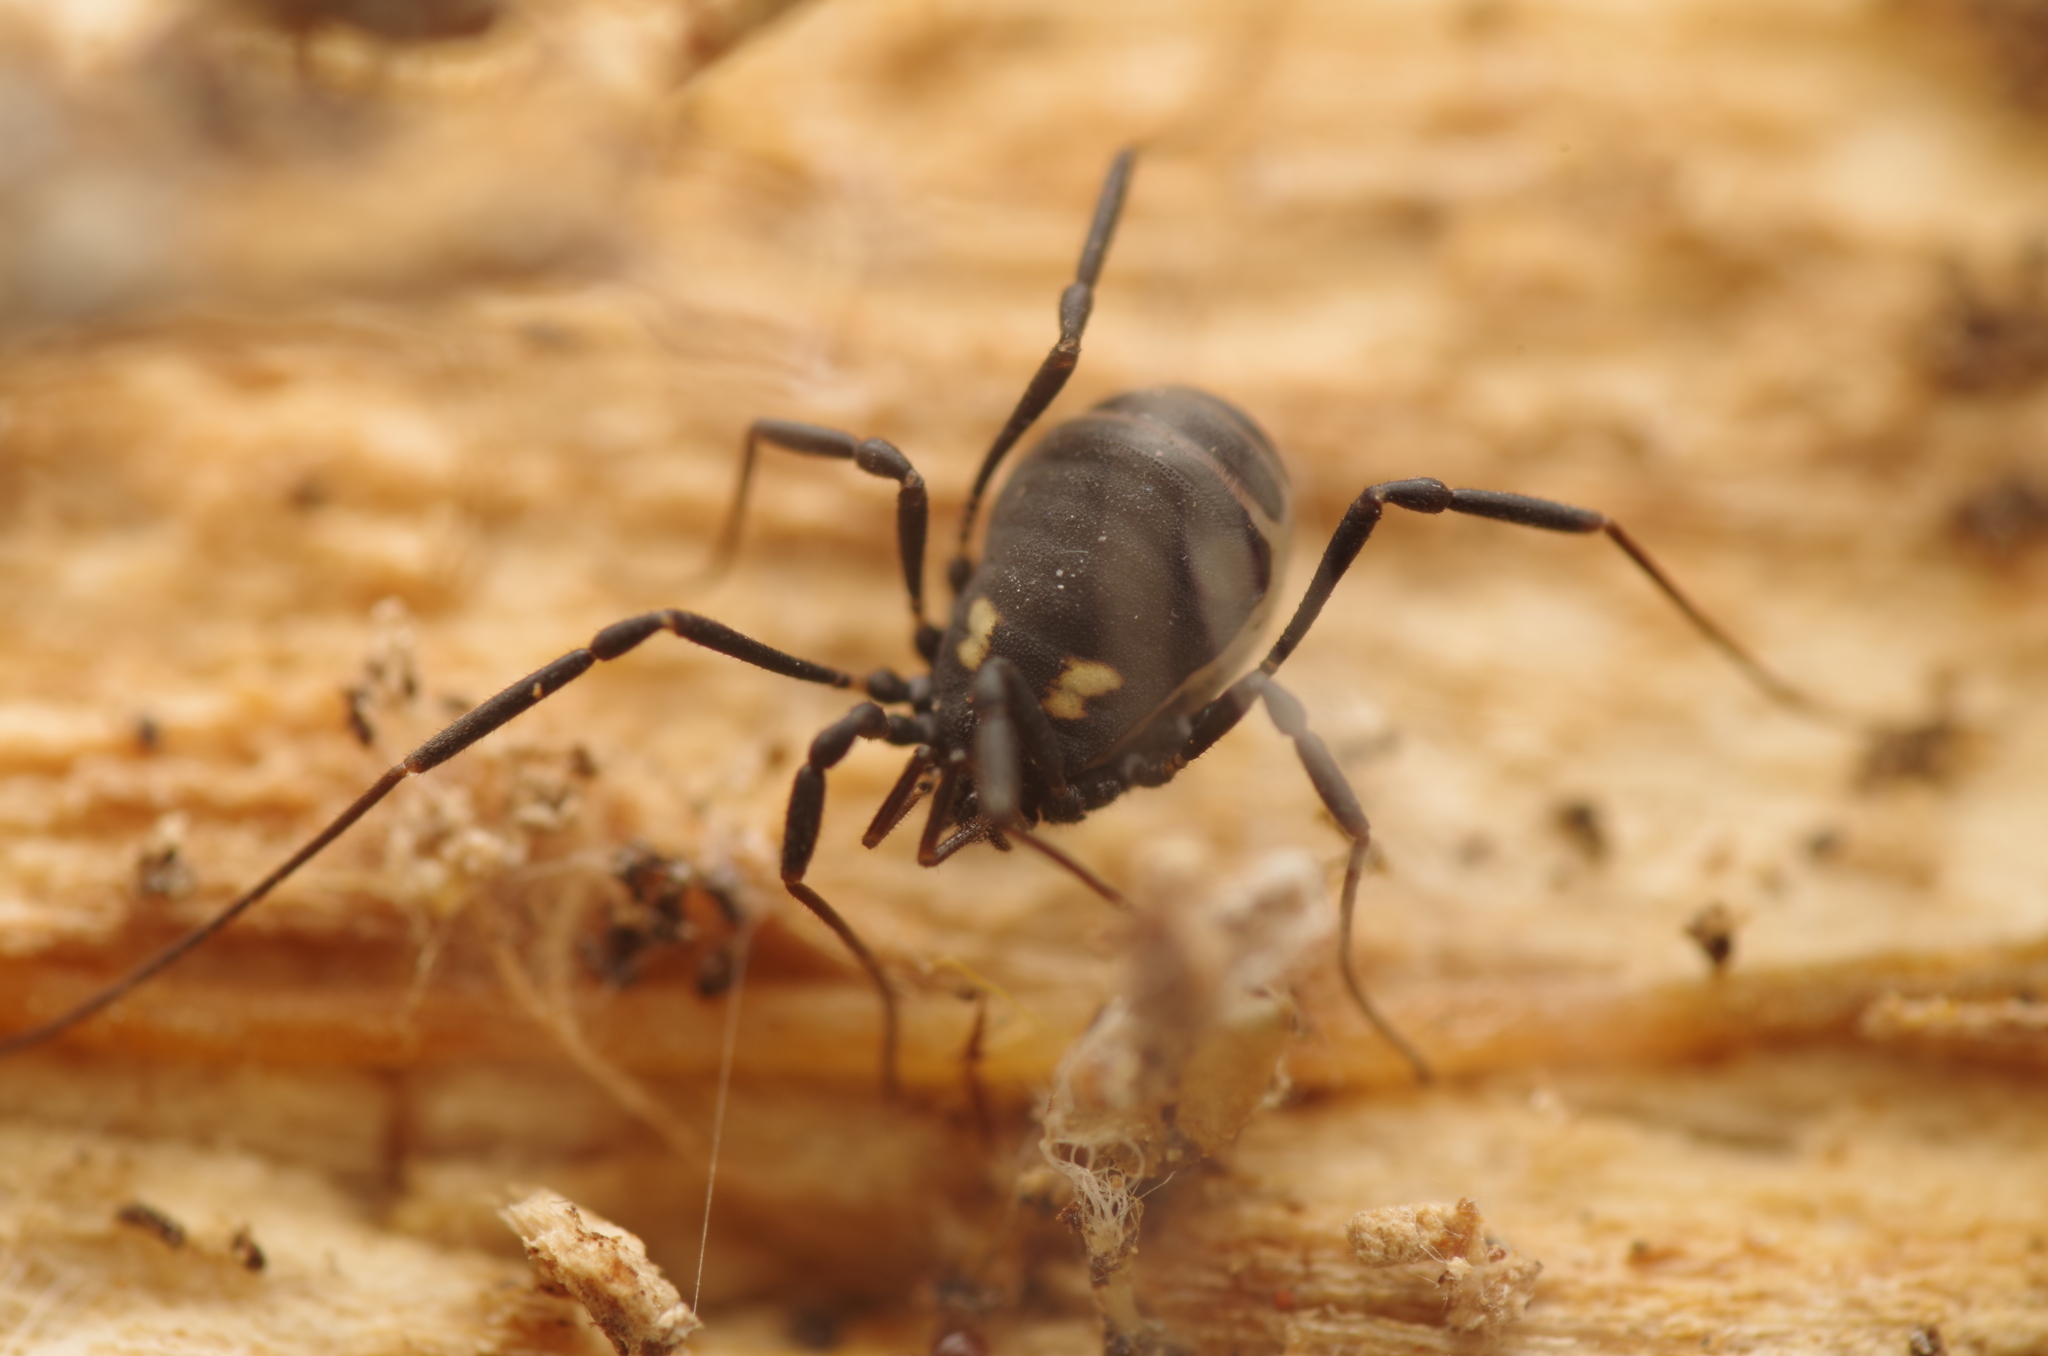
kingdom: Animalia
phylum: Arthropoda
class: Arachnida
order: Opiliones
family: Nemastomatidae
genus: Nemastoma
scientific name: Nemastoma bimaculatum
